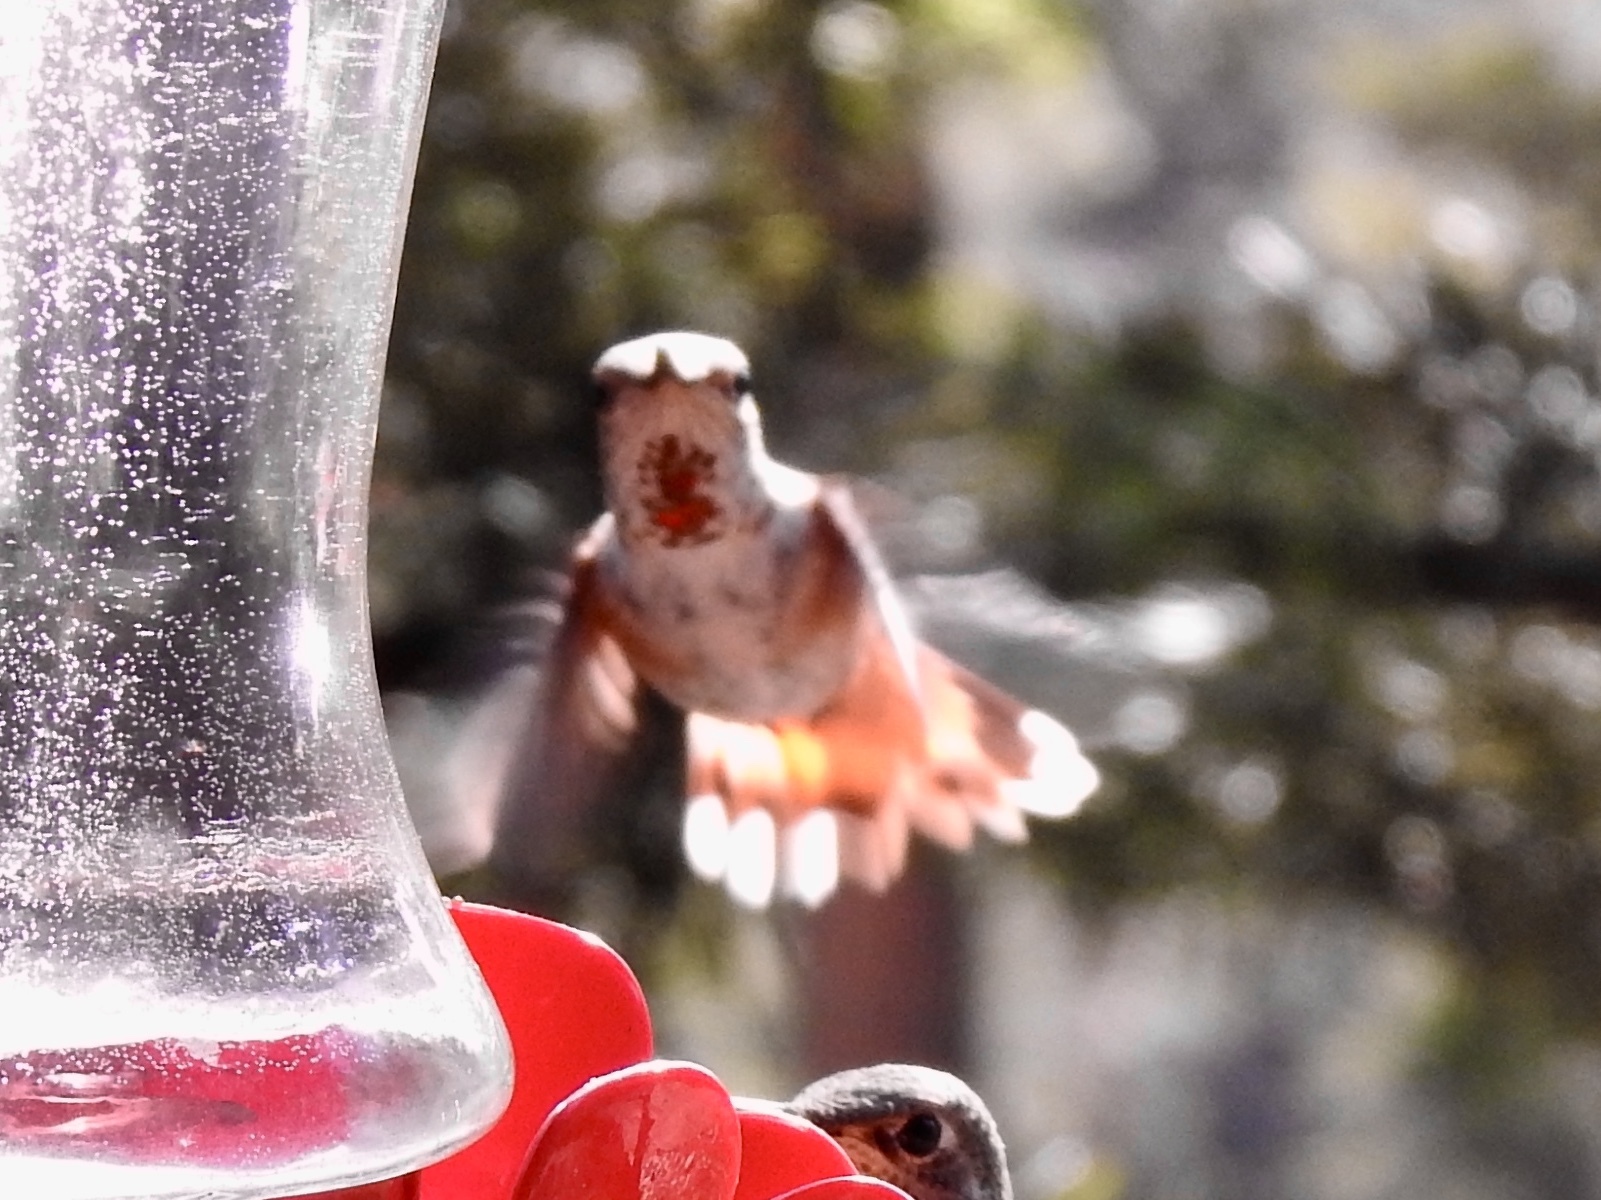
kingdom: Animalia
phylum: Chordata
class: Aves
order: Apodiformes
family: Trochilidae
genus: Selasphorus
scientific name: Selasphorus rufus
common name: Rufous hummingbird
